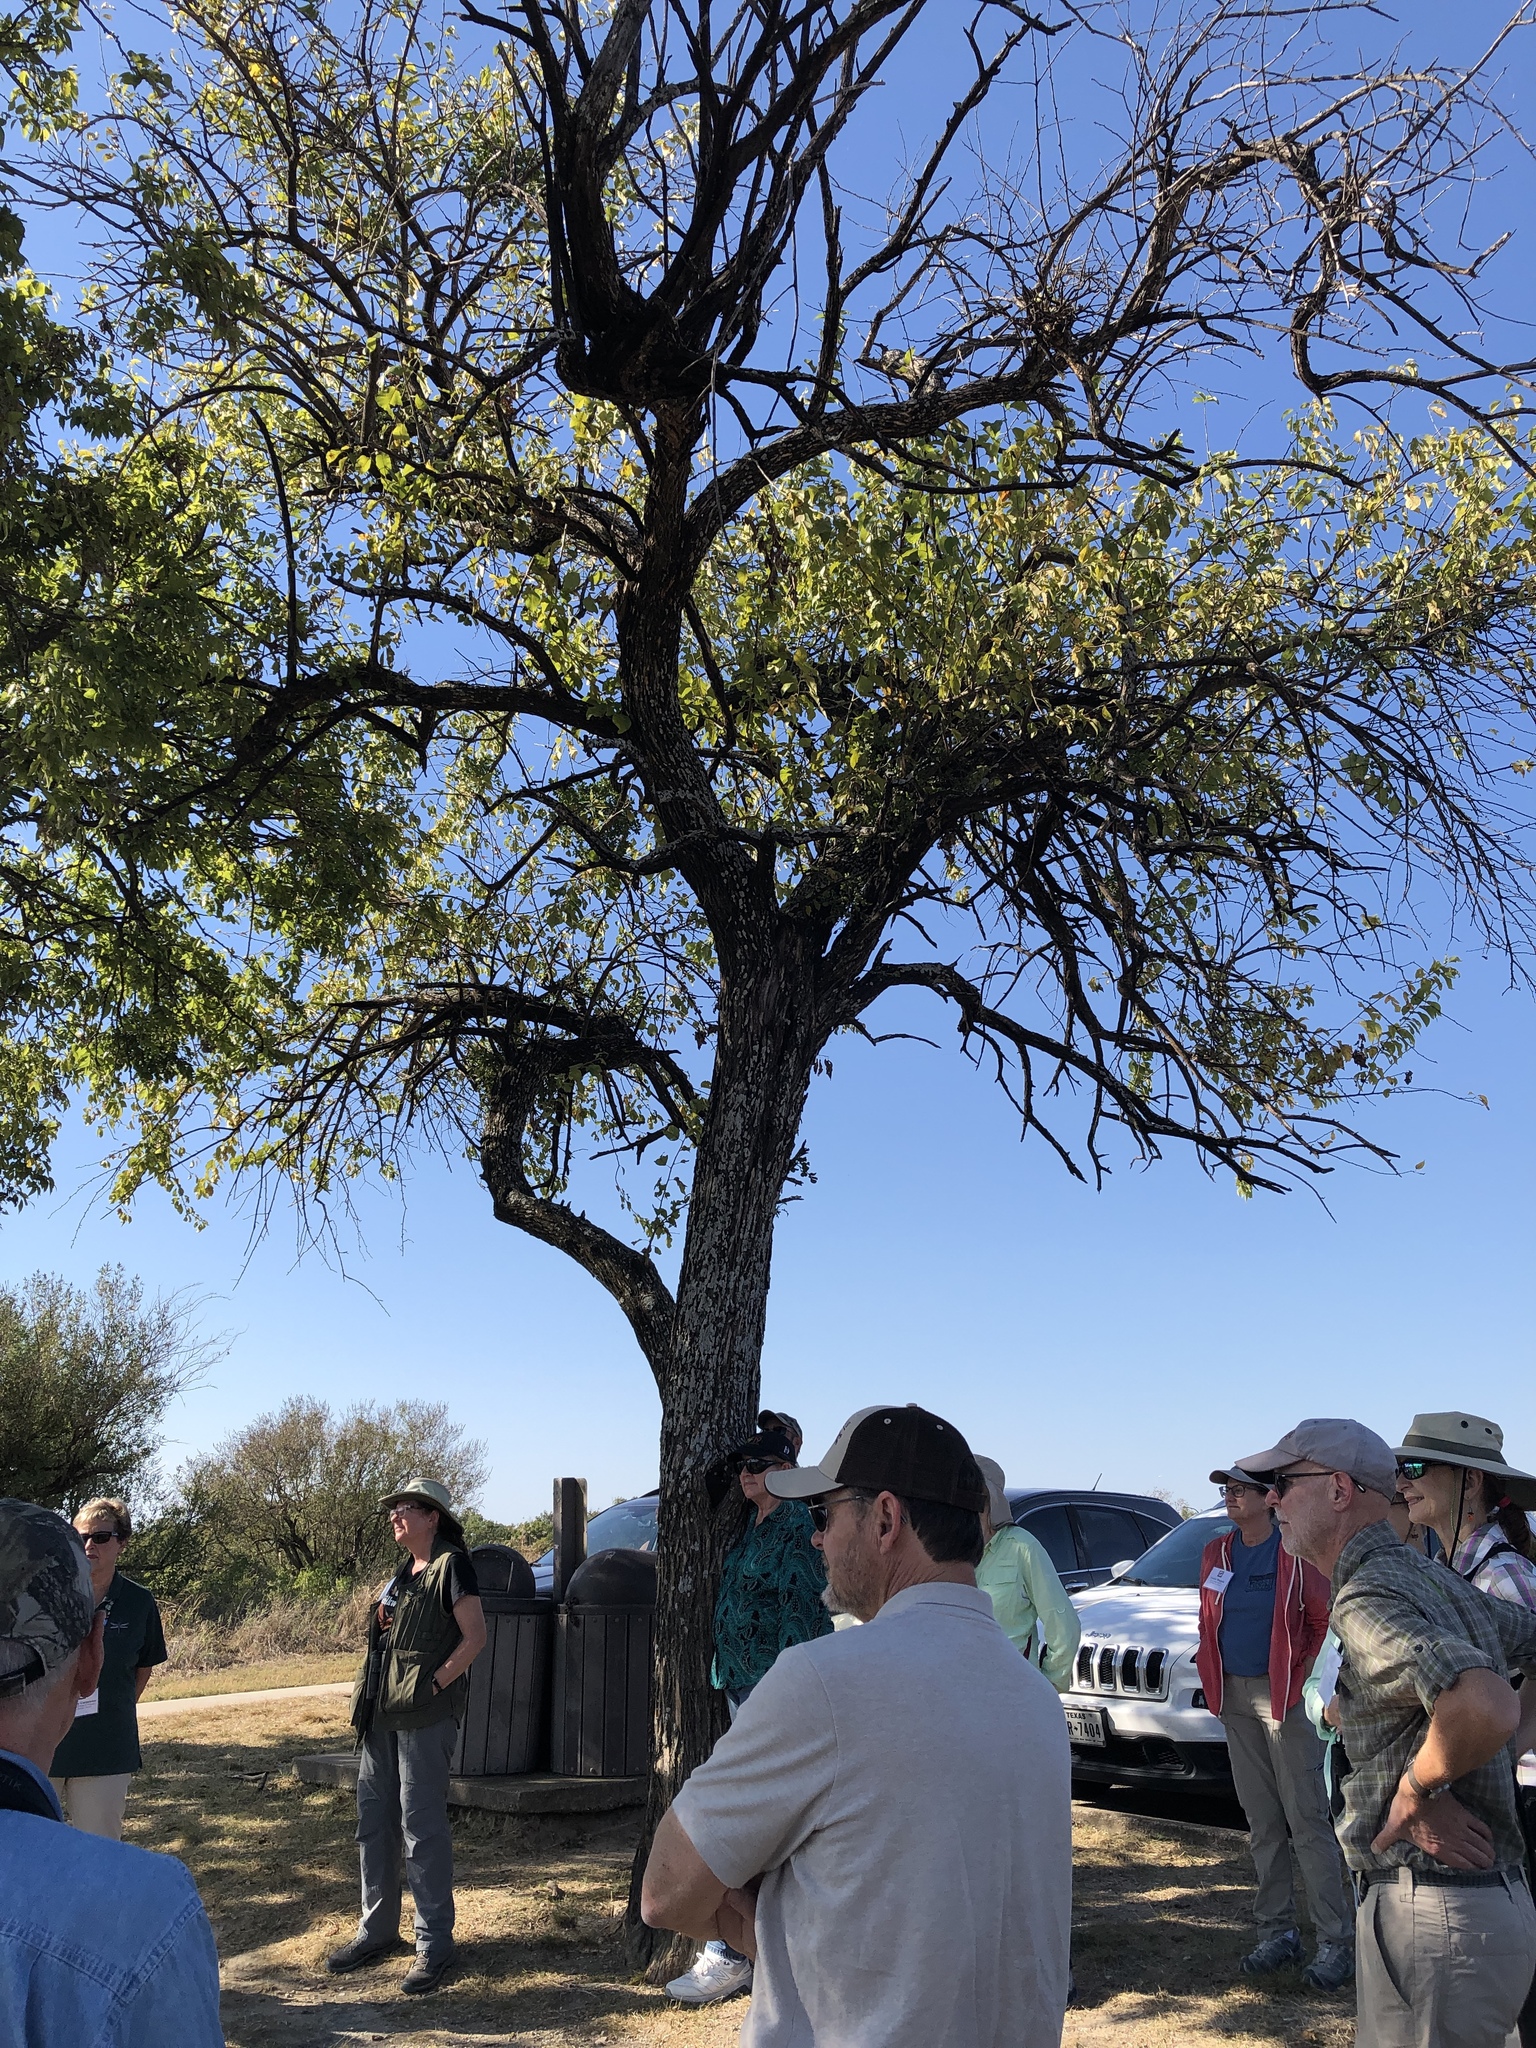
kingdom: Plantae
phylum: Tracheophyta
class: Magnoliopsida
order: Rosales
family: Moraceae
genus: Maclura
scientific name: Maclura pomifera
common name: Osage-orange
